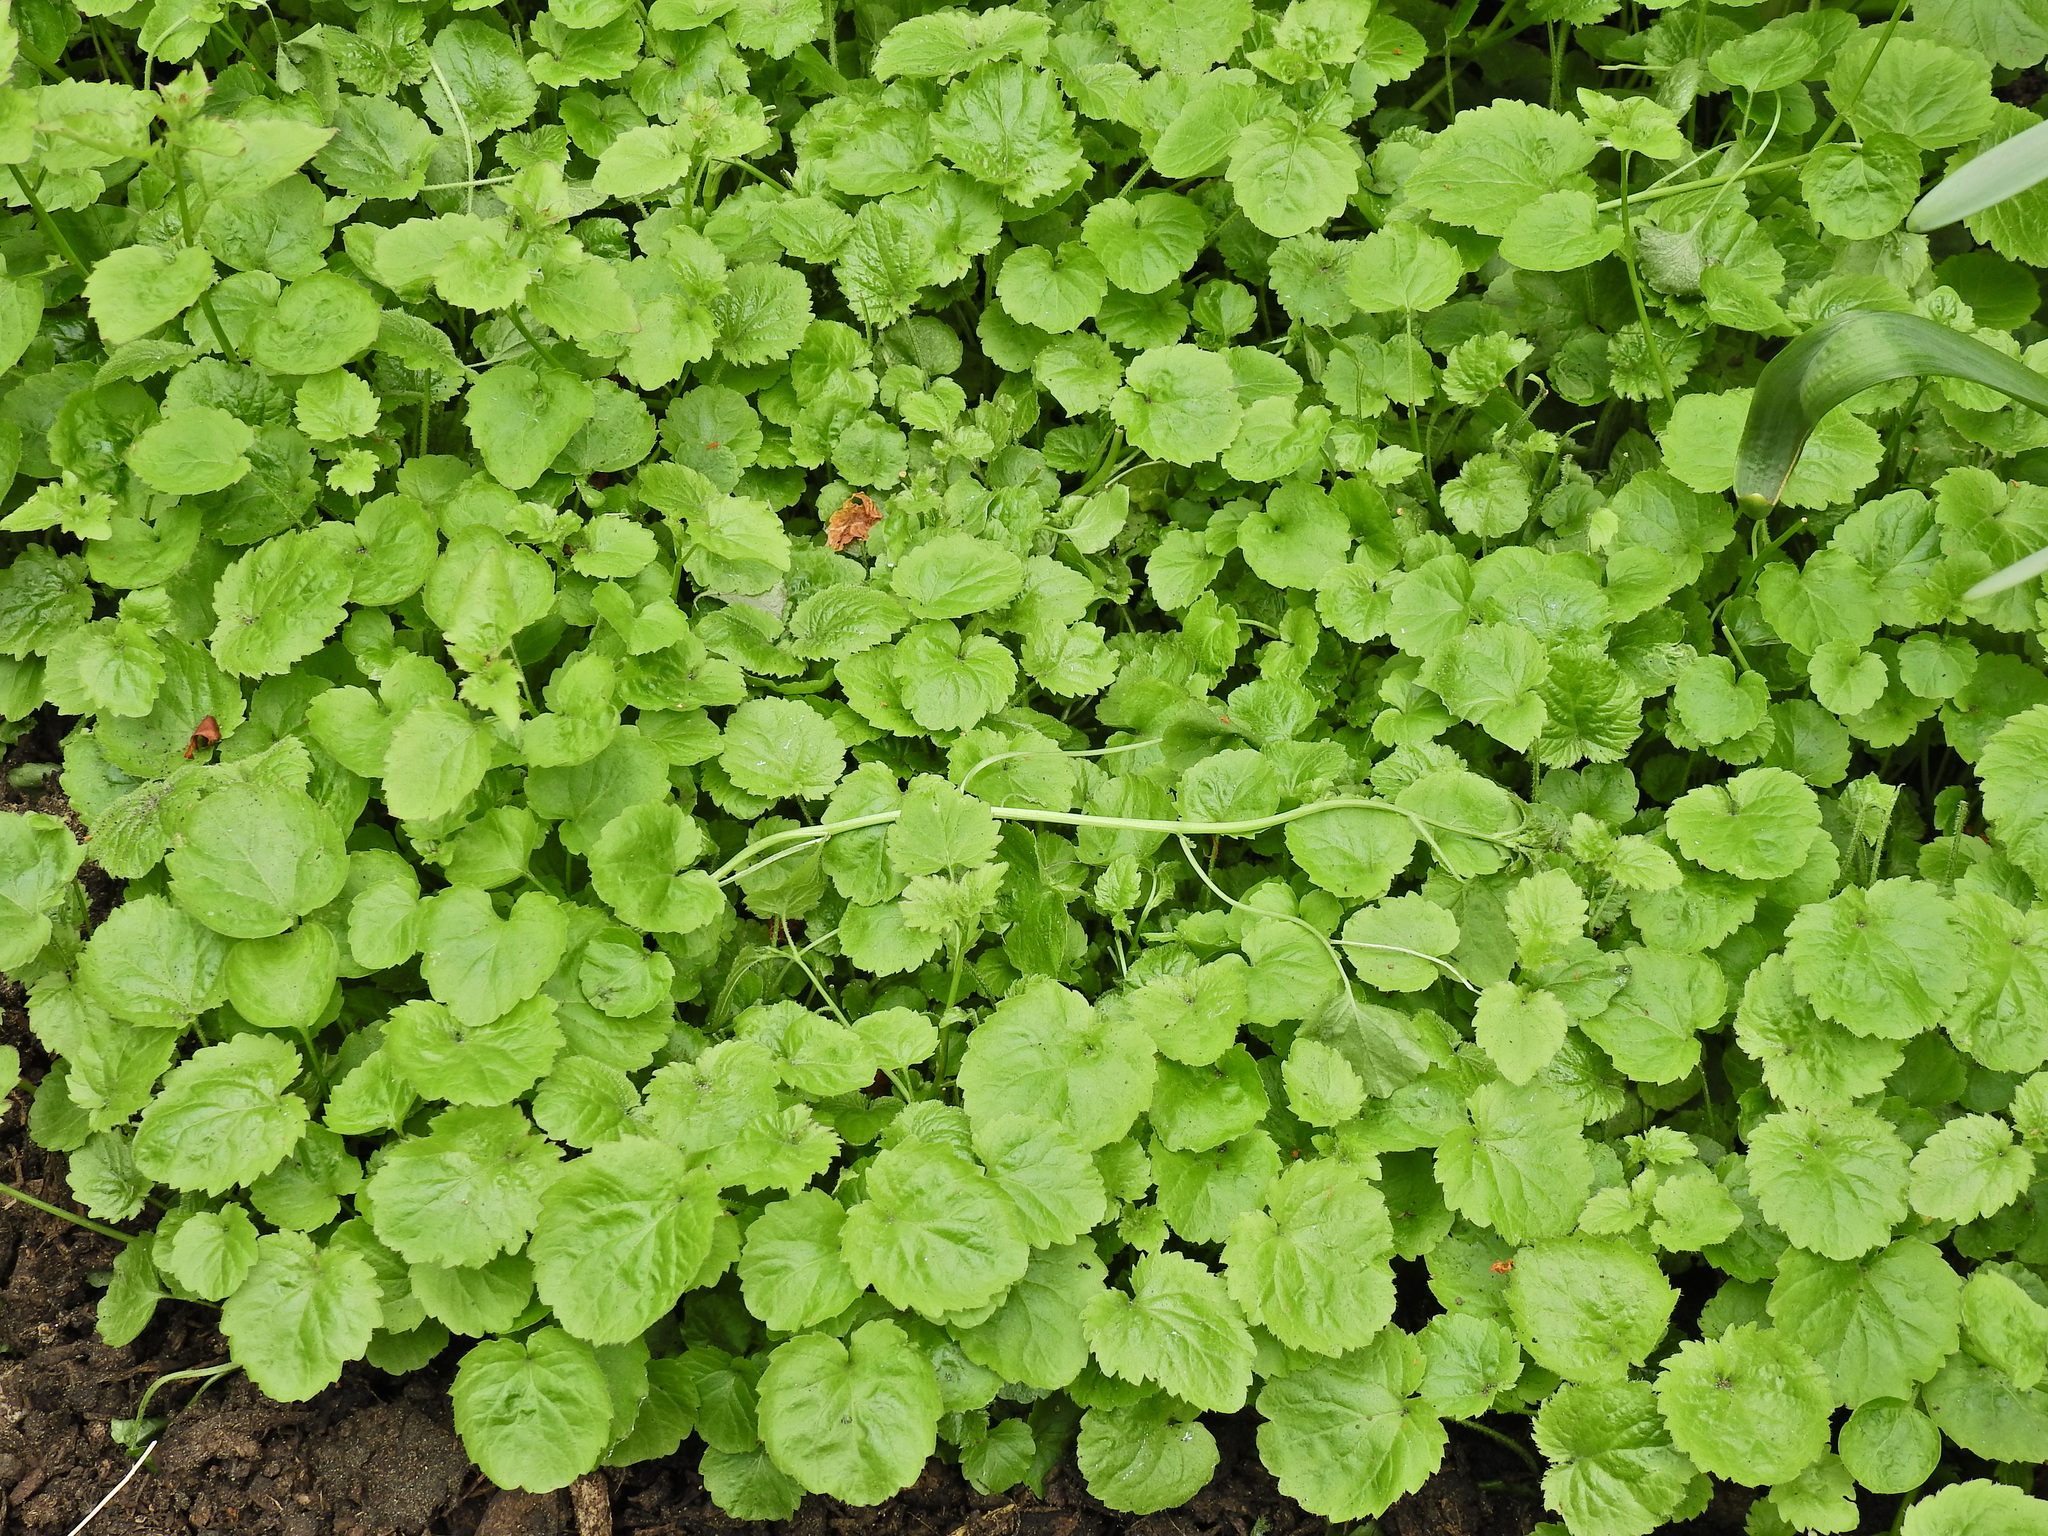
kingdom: Plantae
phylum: Tracheophyta
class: Magnoliopsida
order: Lamiales
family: Lamiaceae
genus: Glechoma
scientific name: Glechoma hederacea
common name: Ground ivy
